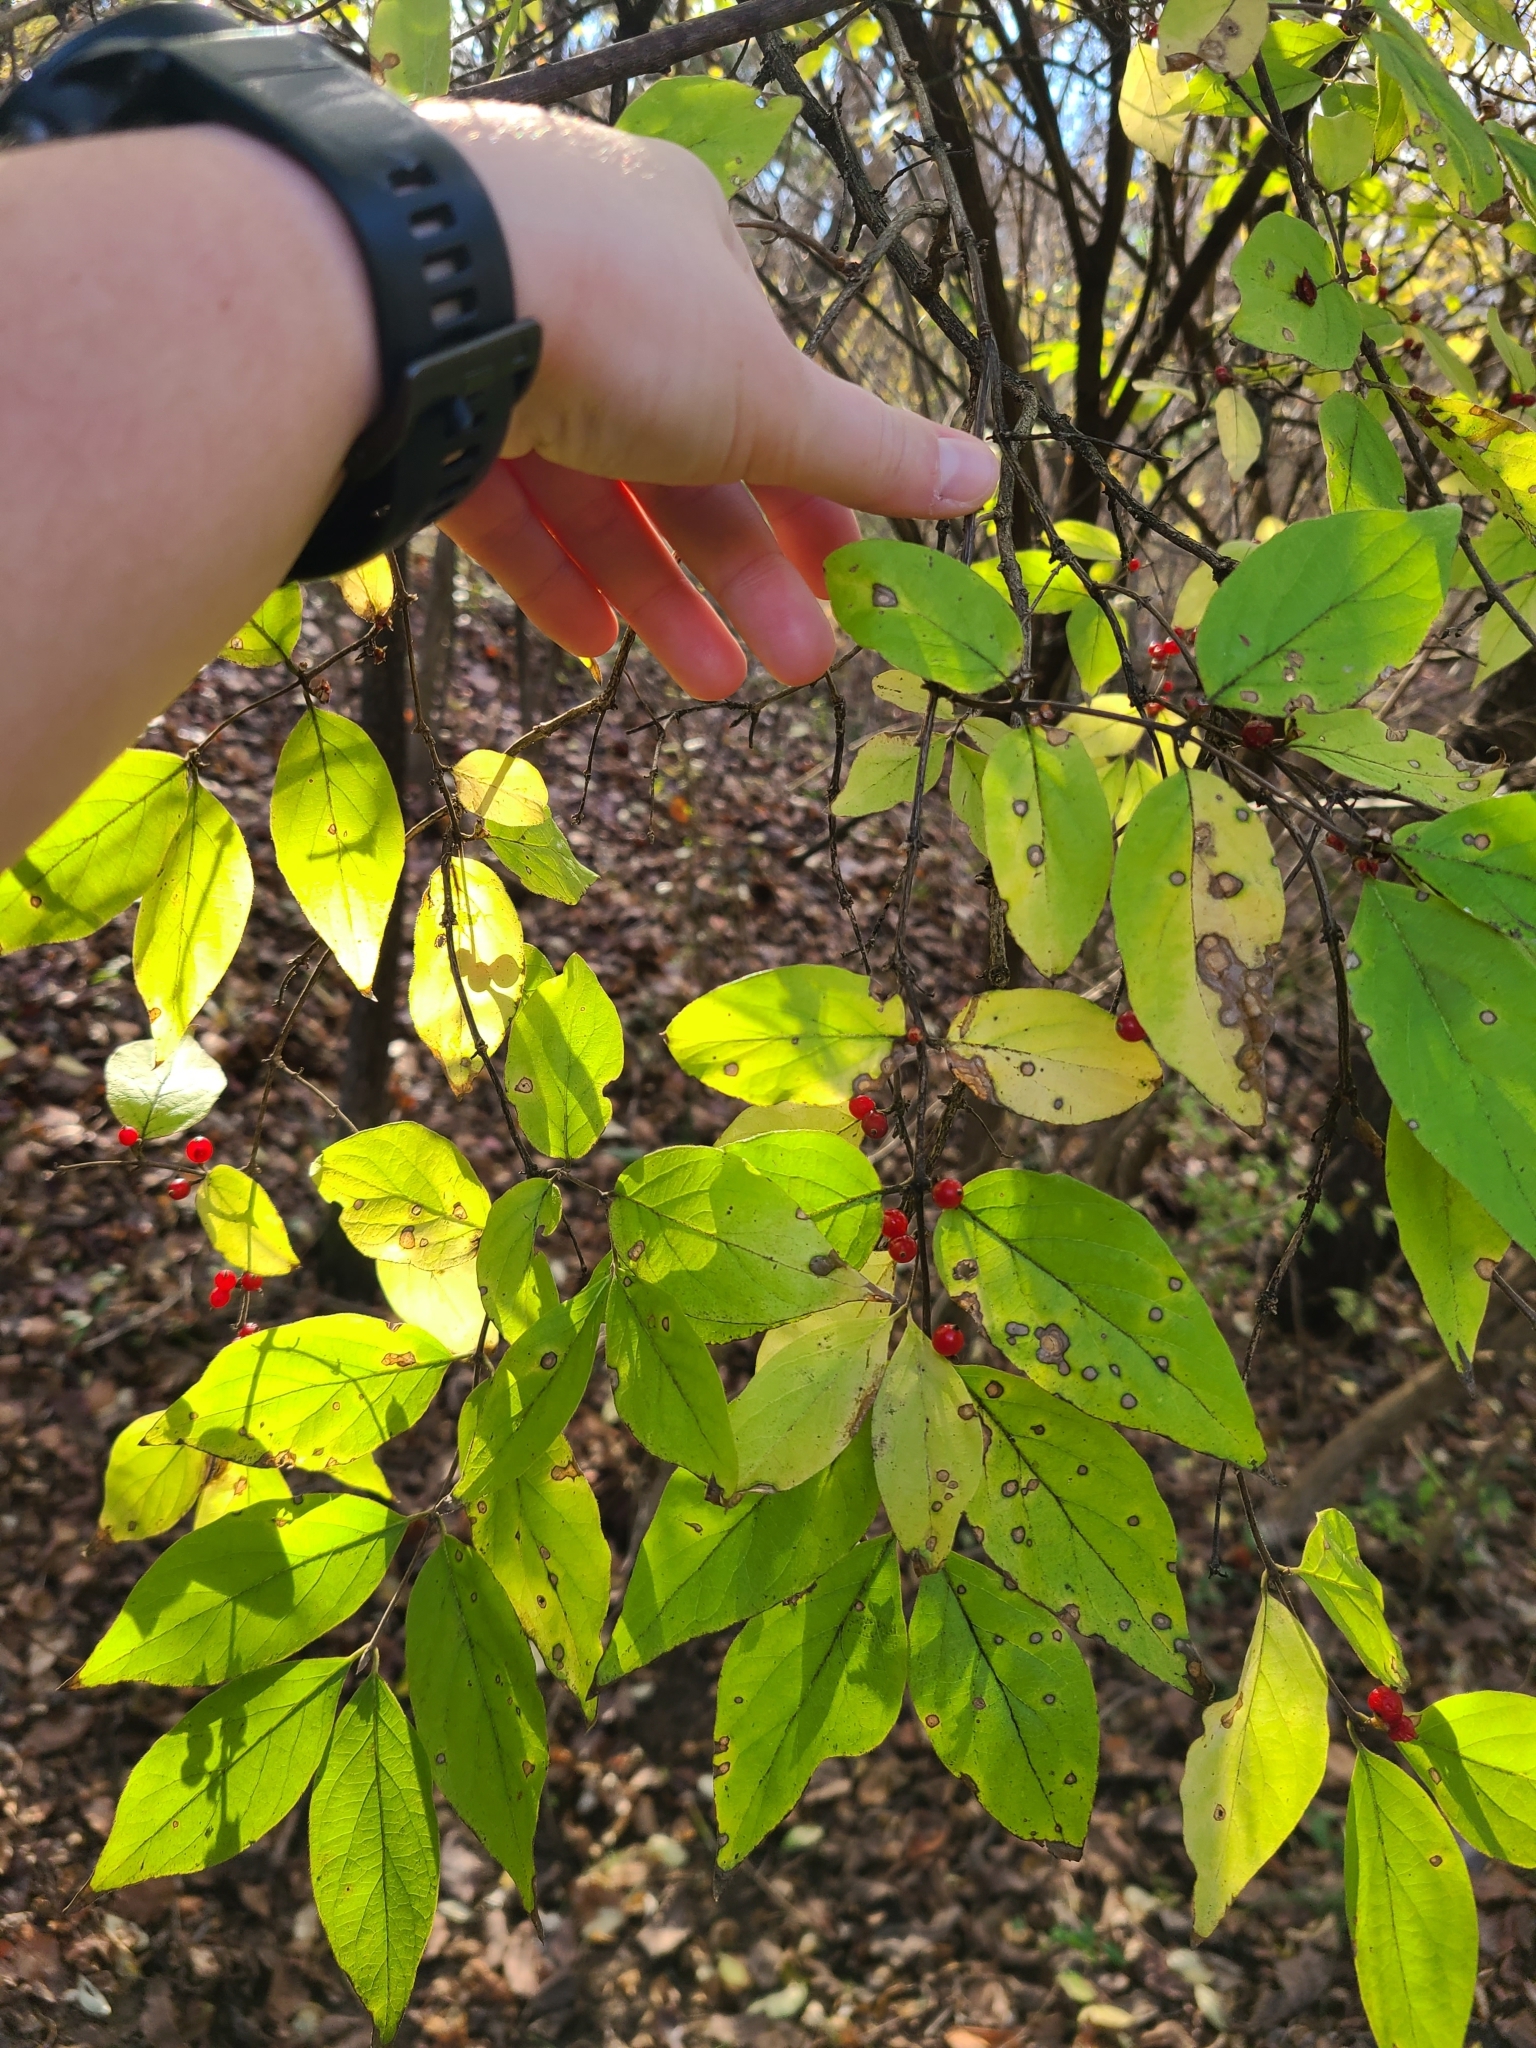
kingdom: Plantae
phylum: Tracheophyta
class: Magnoliopsida
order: Dipsacales
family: Caprifoliaceae
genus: Lonicera
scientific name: Lonicera maackii
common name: Amur honeysuckle
